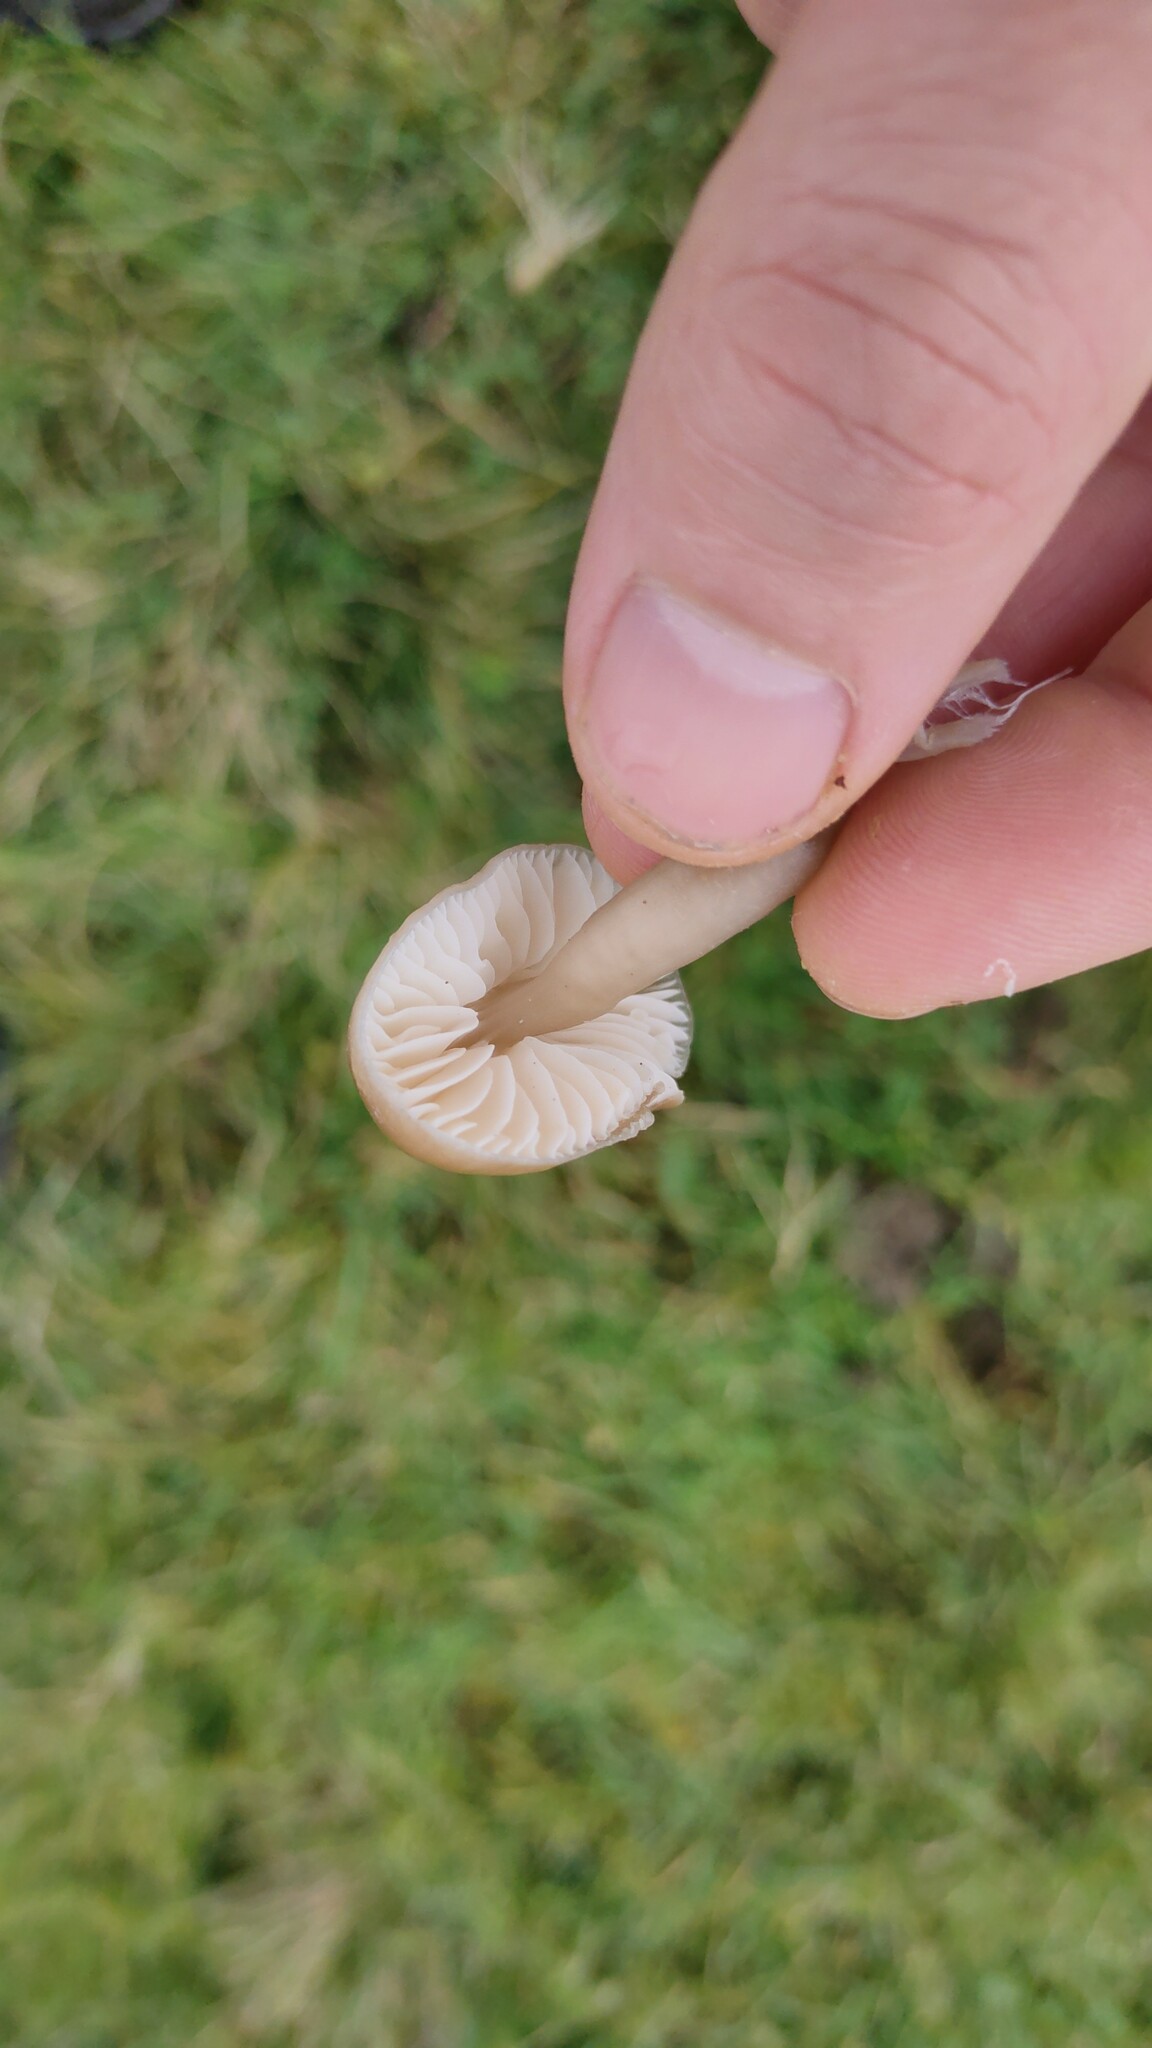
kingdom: Fungi
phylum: Basidiomycota
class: Agaricomycetes
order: Agaricales
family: Hygrophoraceae
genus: Gliophorus
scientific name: Gliophorus irrigatus
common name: Slimy waxcap
